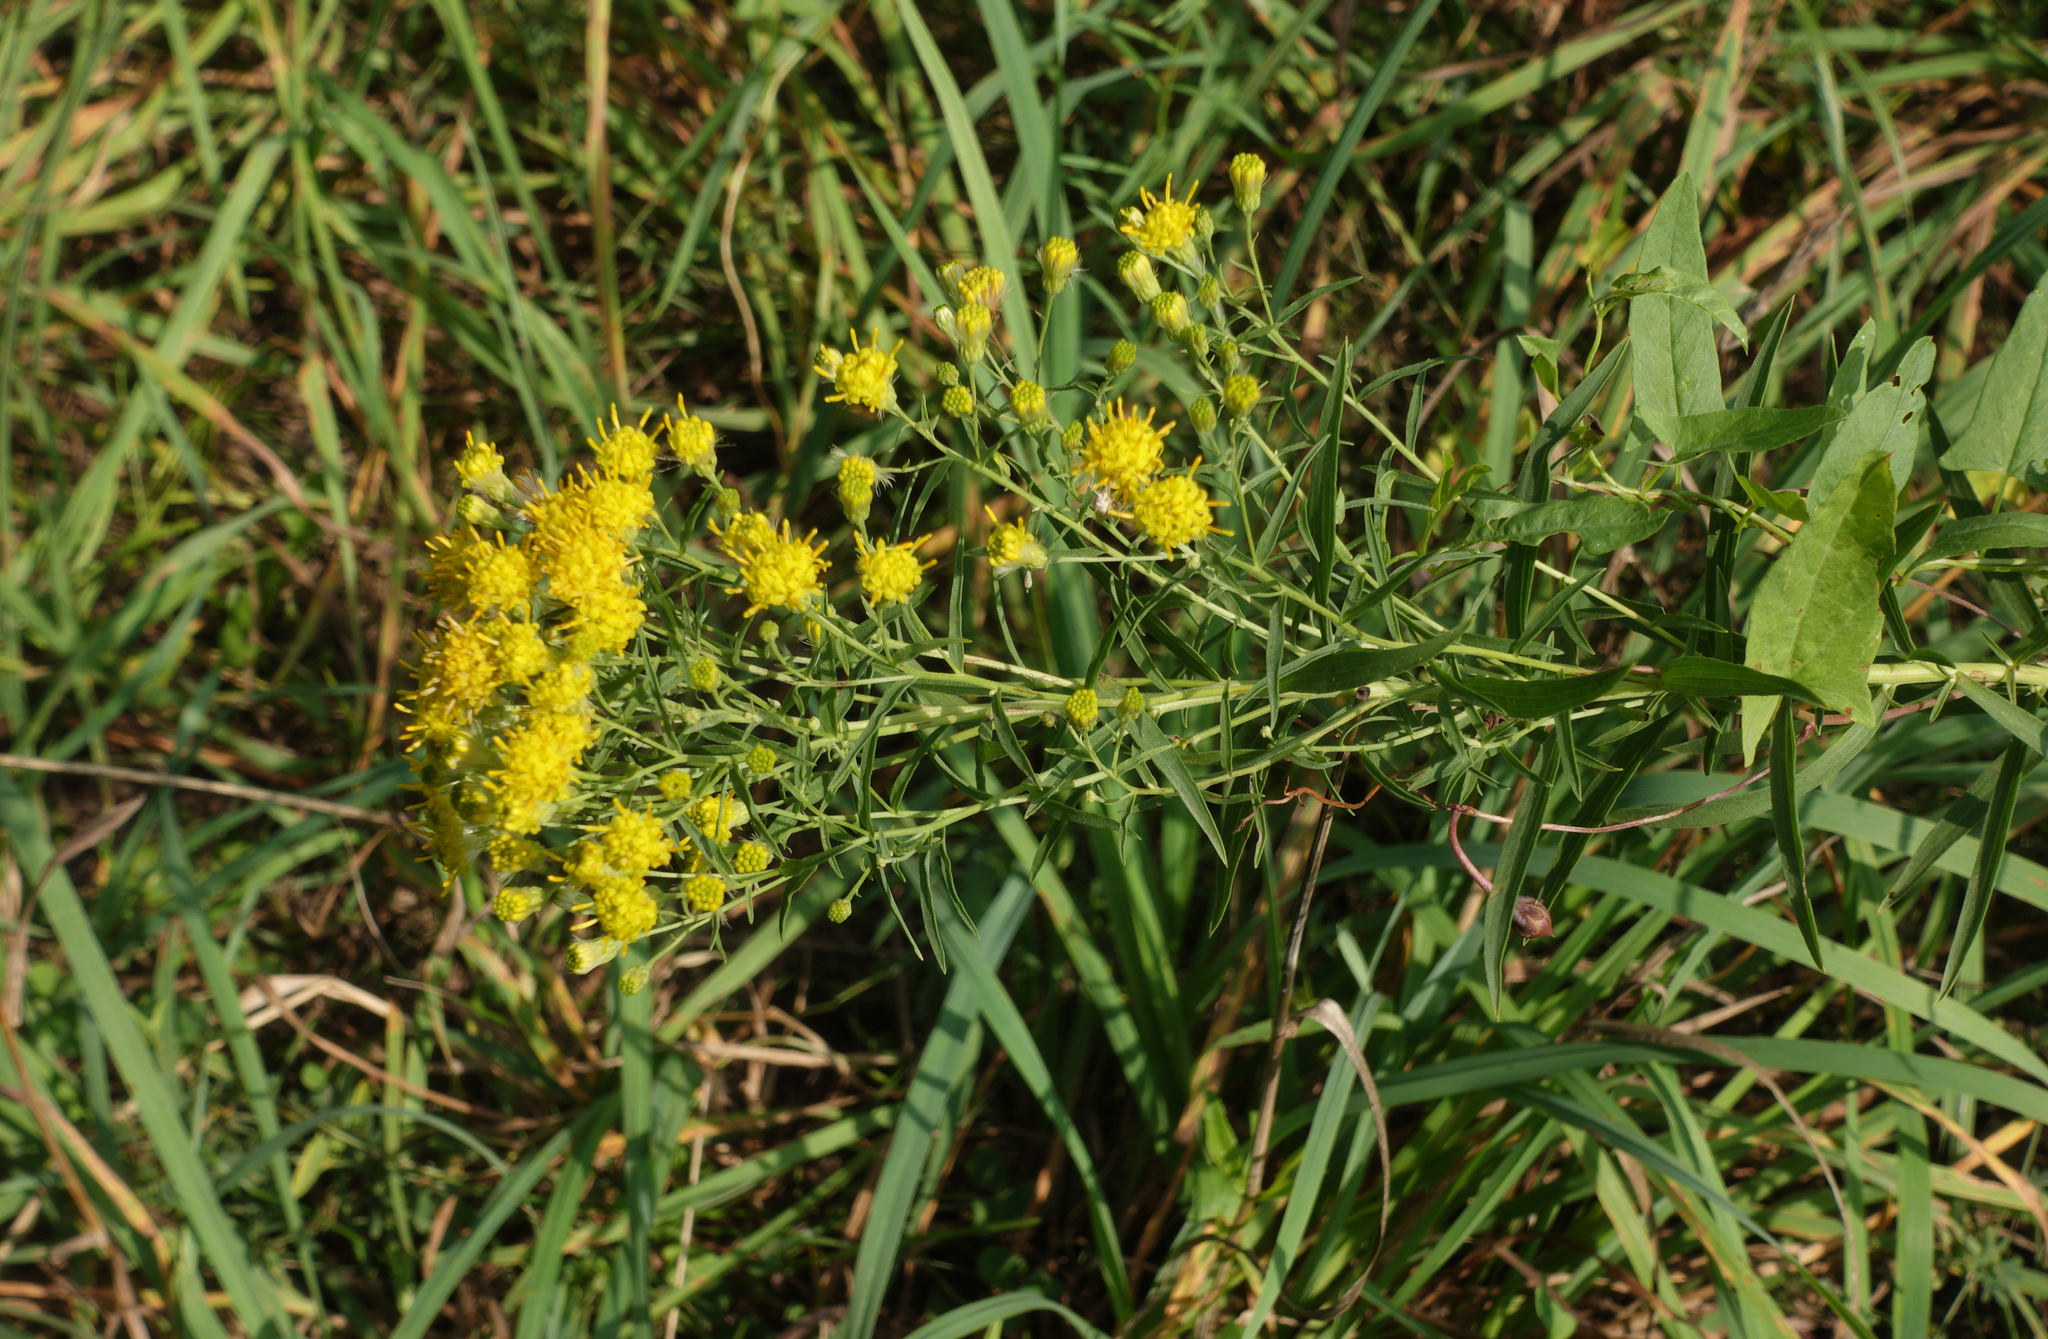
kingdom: Plantae
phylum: Tracheophyta
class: Magnoliopsida
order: Asterales
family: Asteraceae
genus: Galatella
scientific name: Galatella biflora
